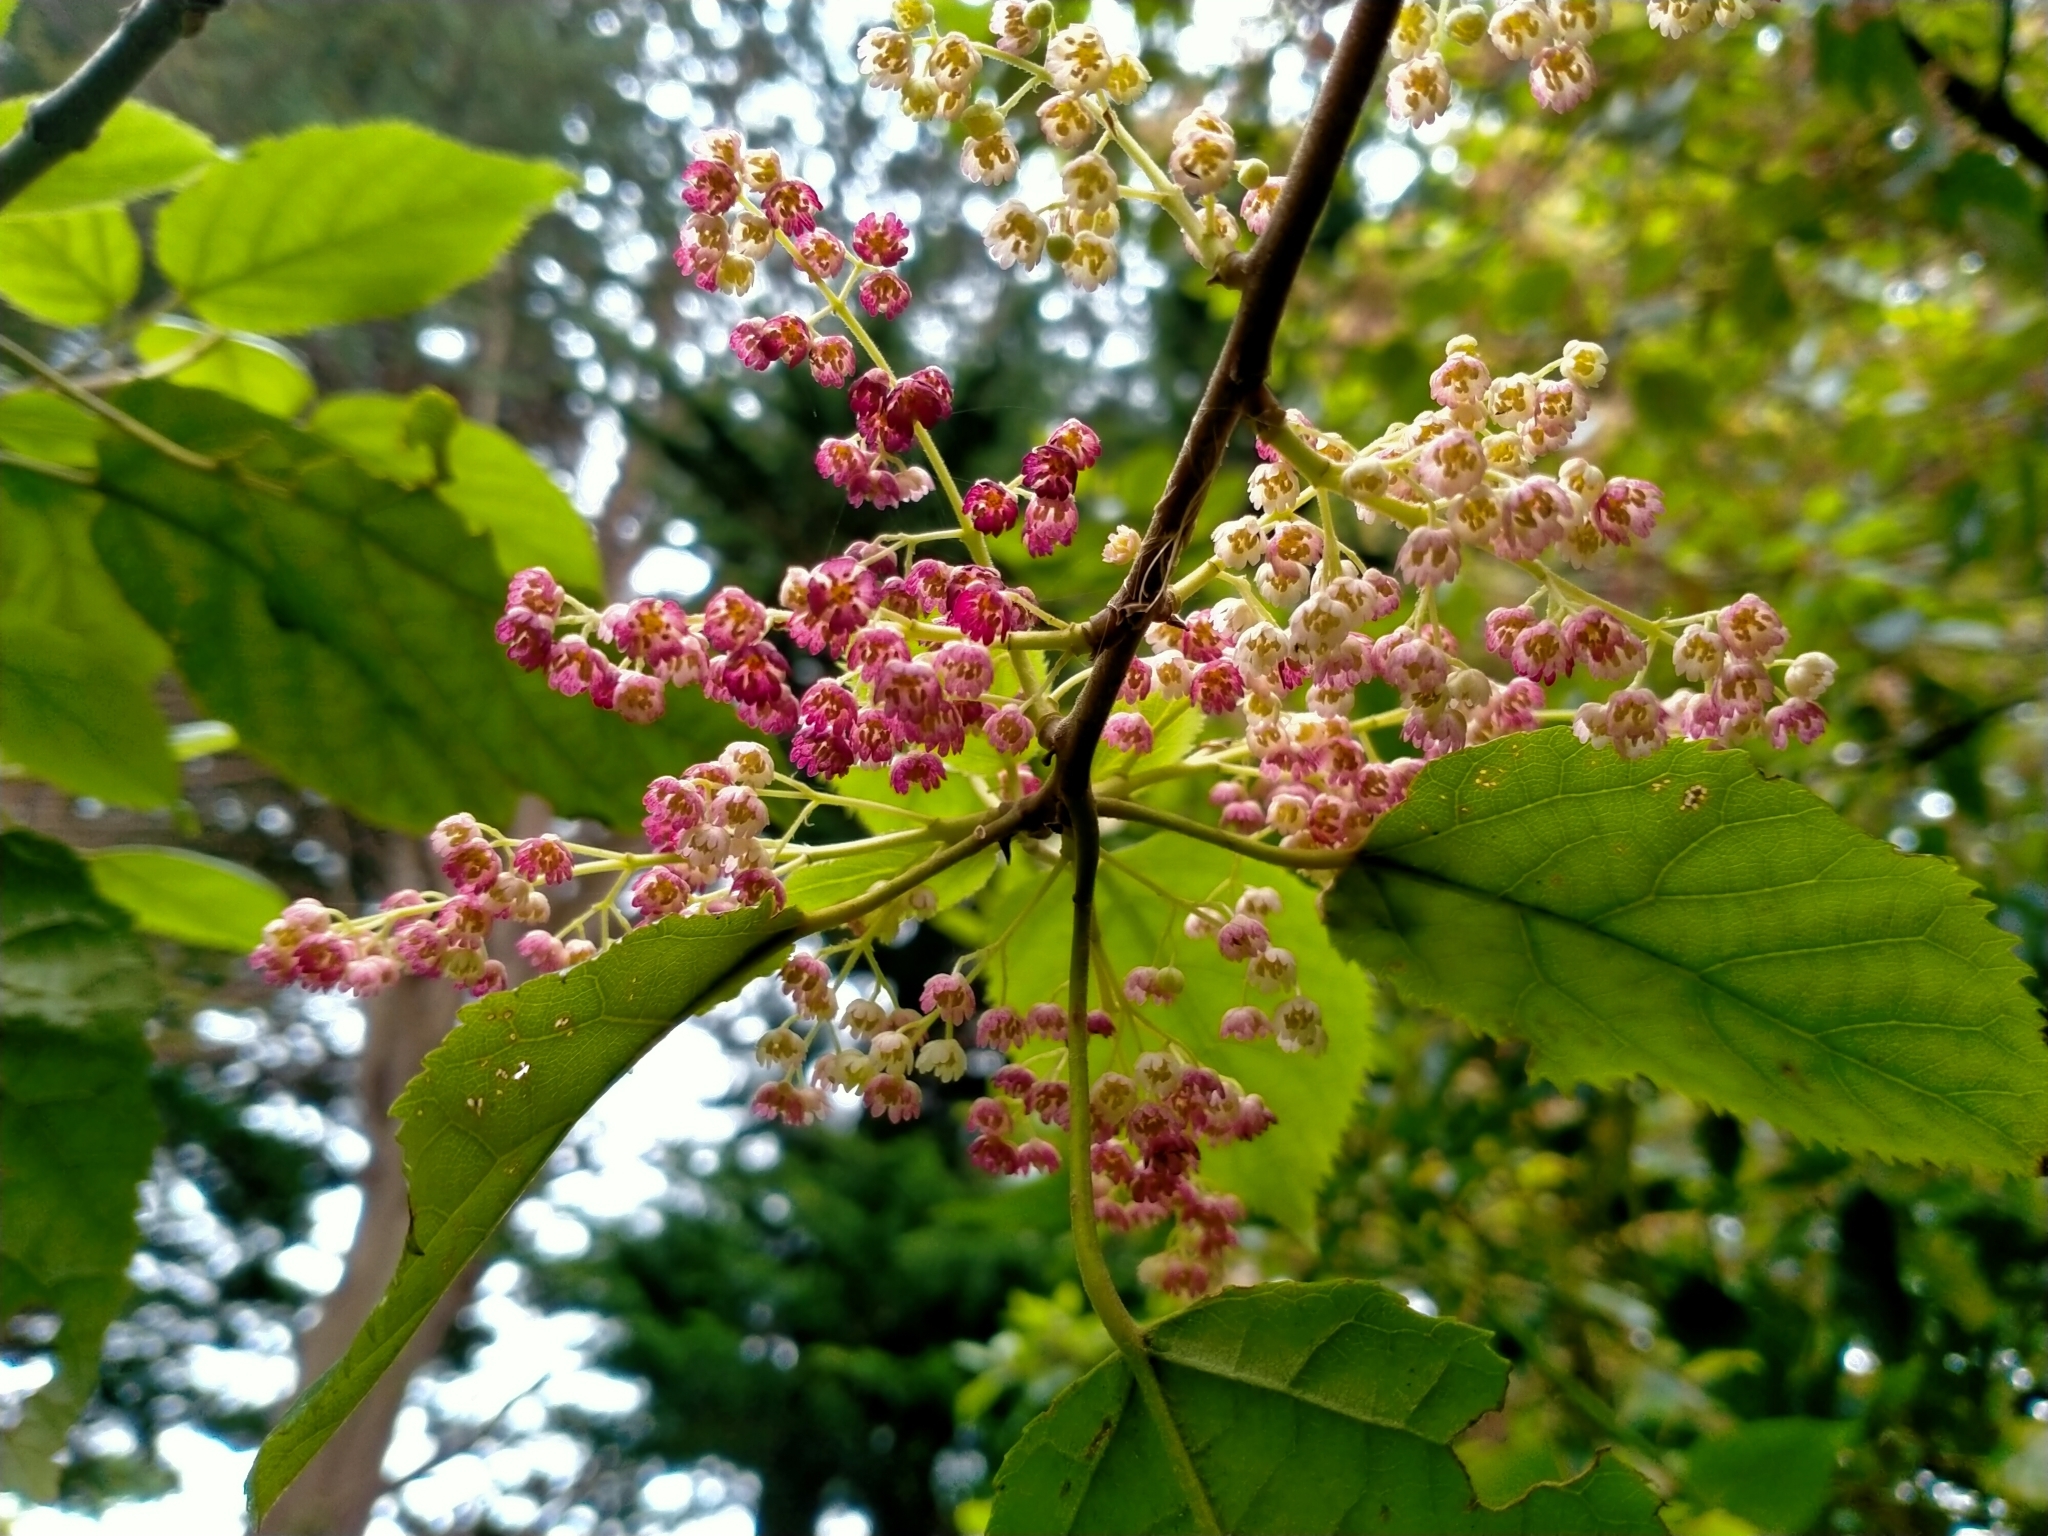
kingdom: Plantae
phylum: Tracheophyta
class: Magnoliopsida
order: Oxalidales
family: Elaeocarpaceae
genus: Aristotelia
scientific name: Aristotelia serrata
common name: New zealand wineberry
